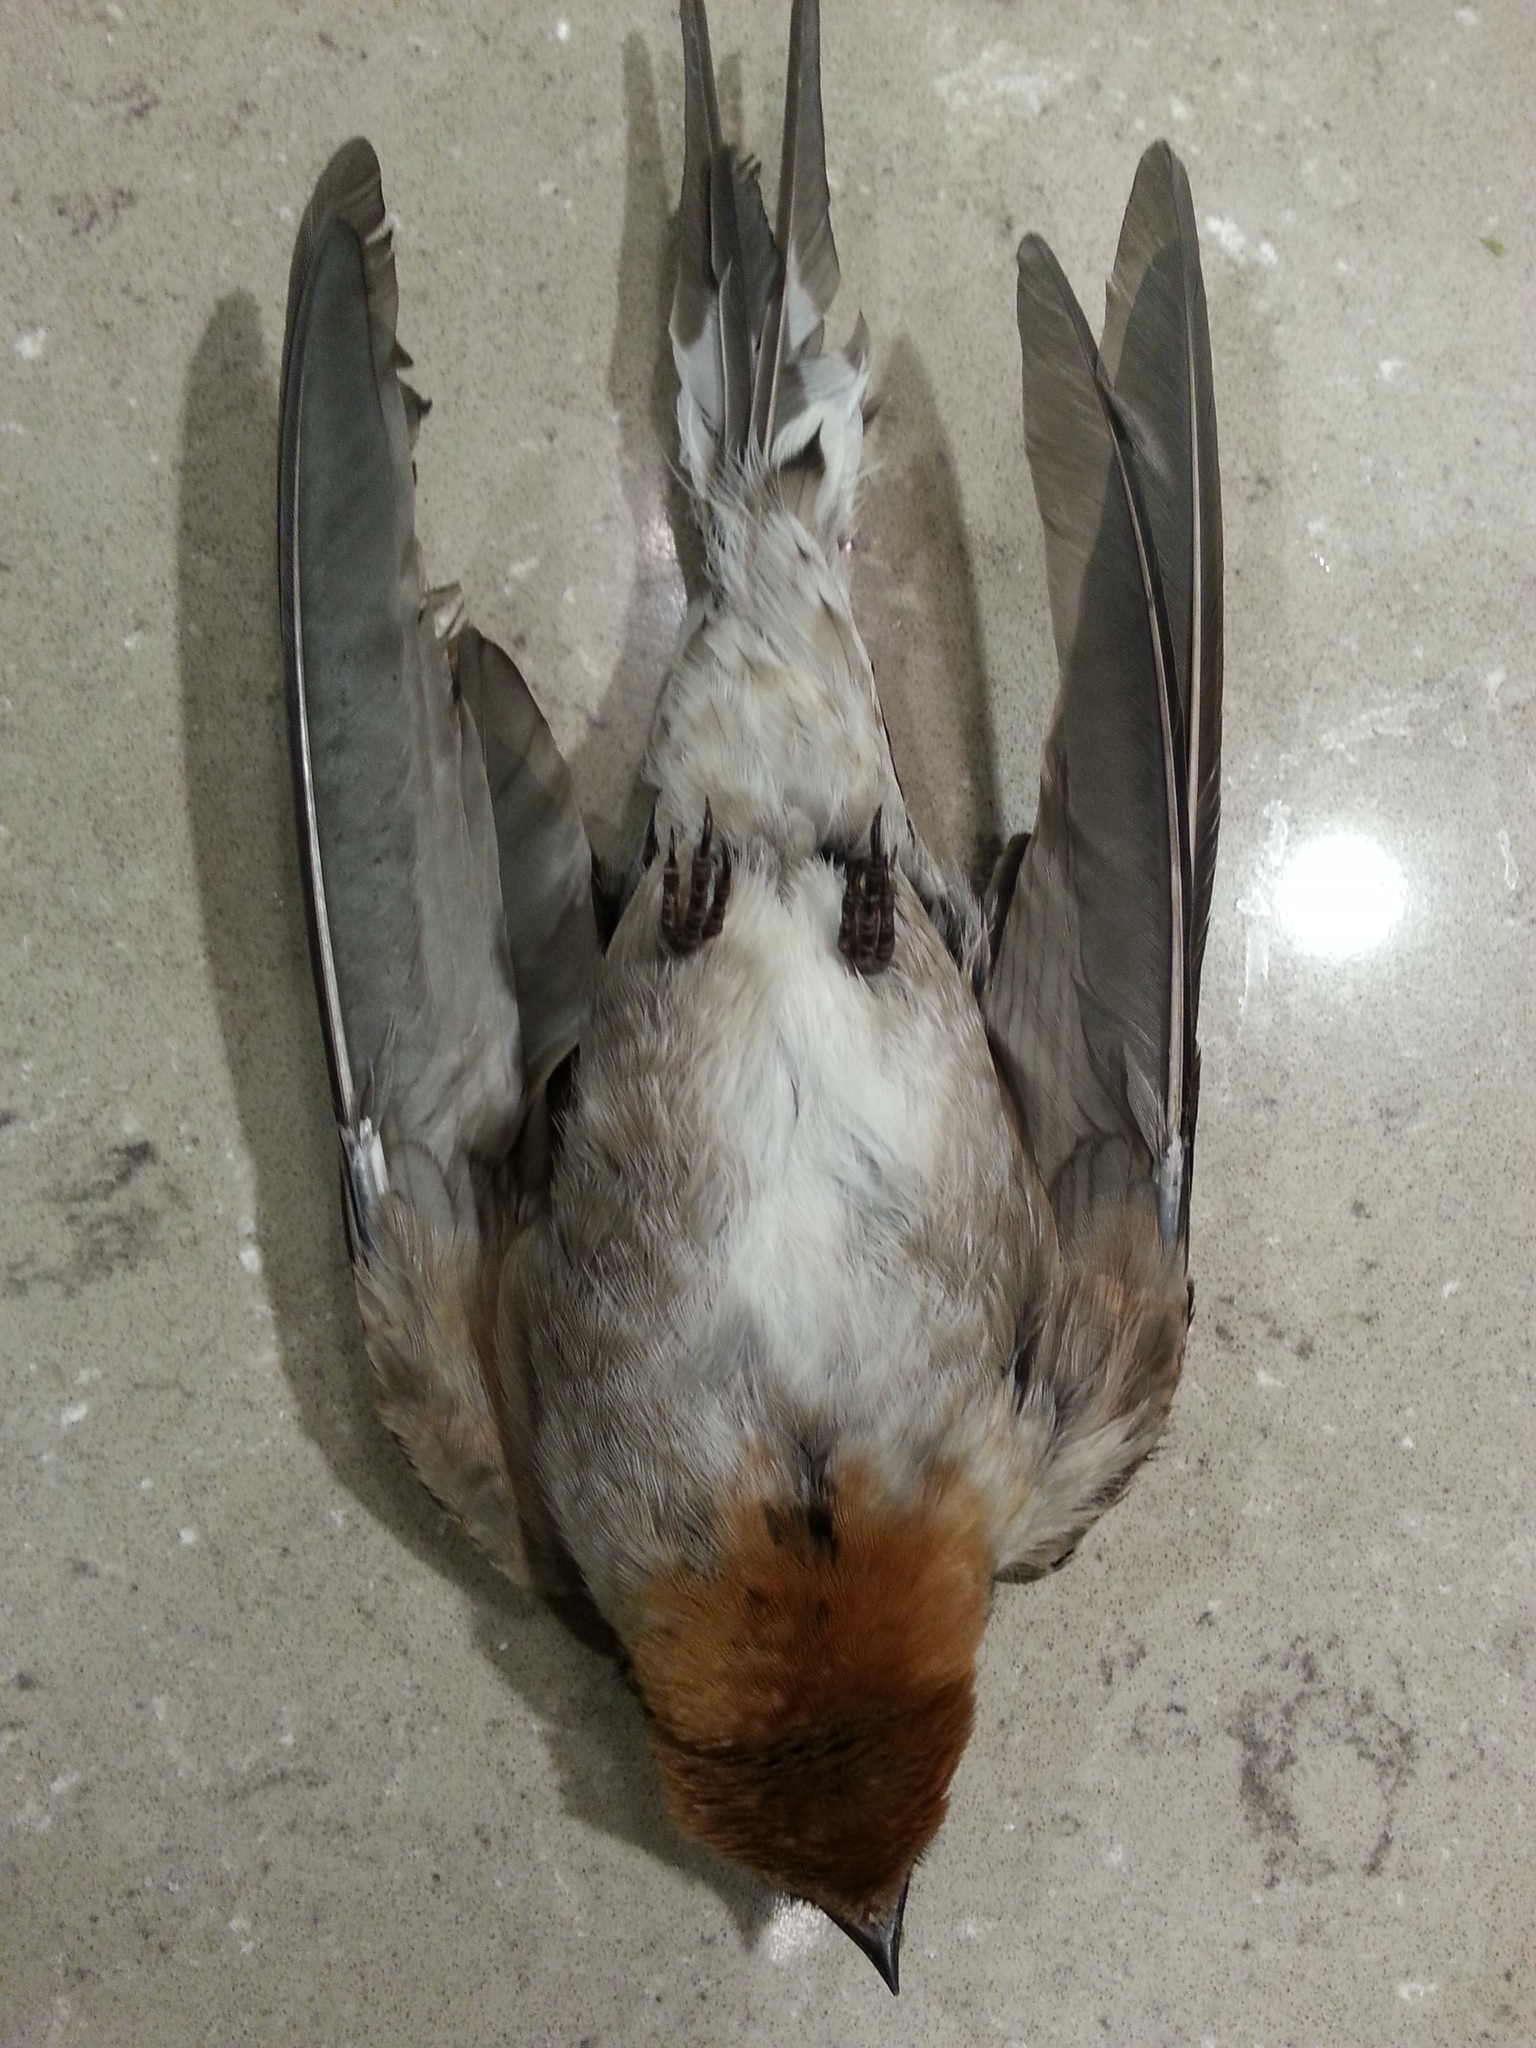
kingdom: Animalia
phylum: Chordata
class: Aves
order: Passeriformes
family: Hirundinidae
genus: Hirundo
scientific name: Hirundo neoxena
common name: Welcome swallow
